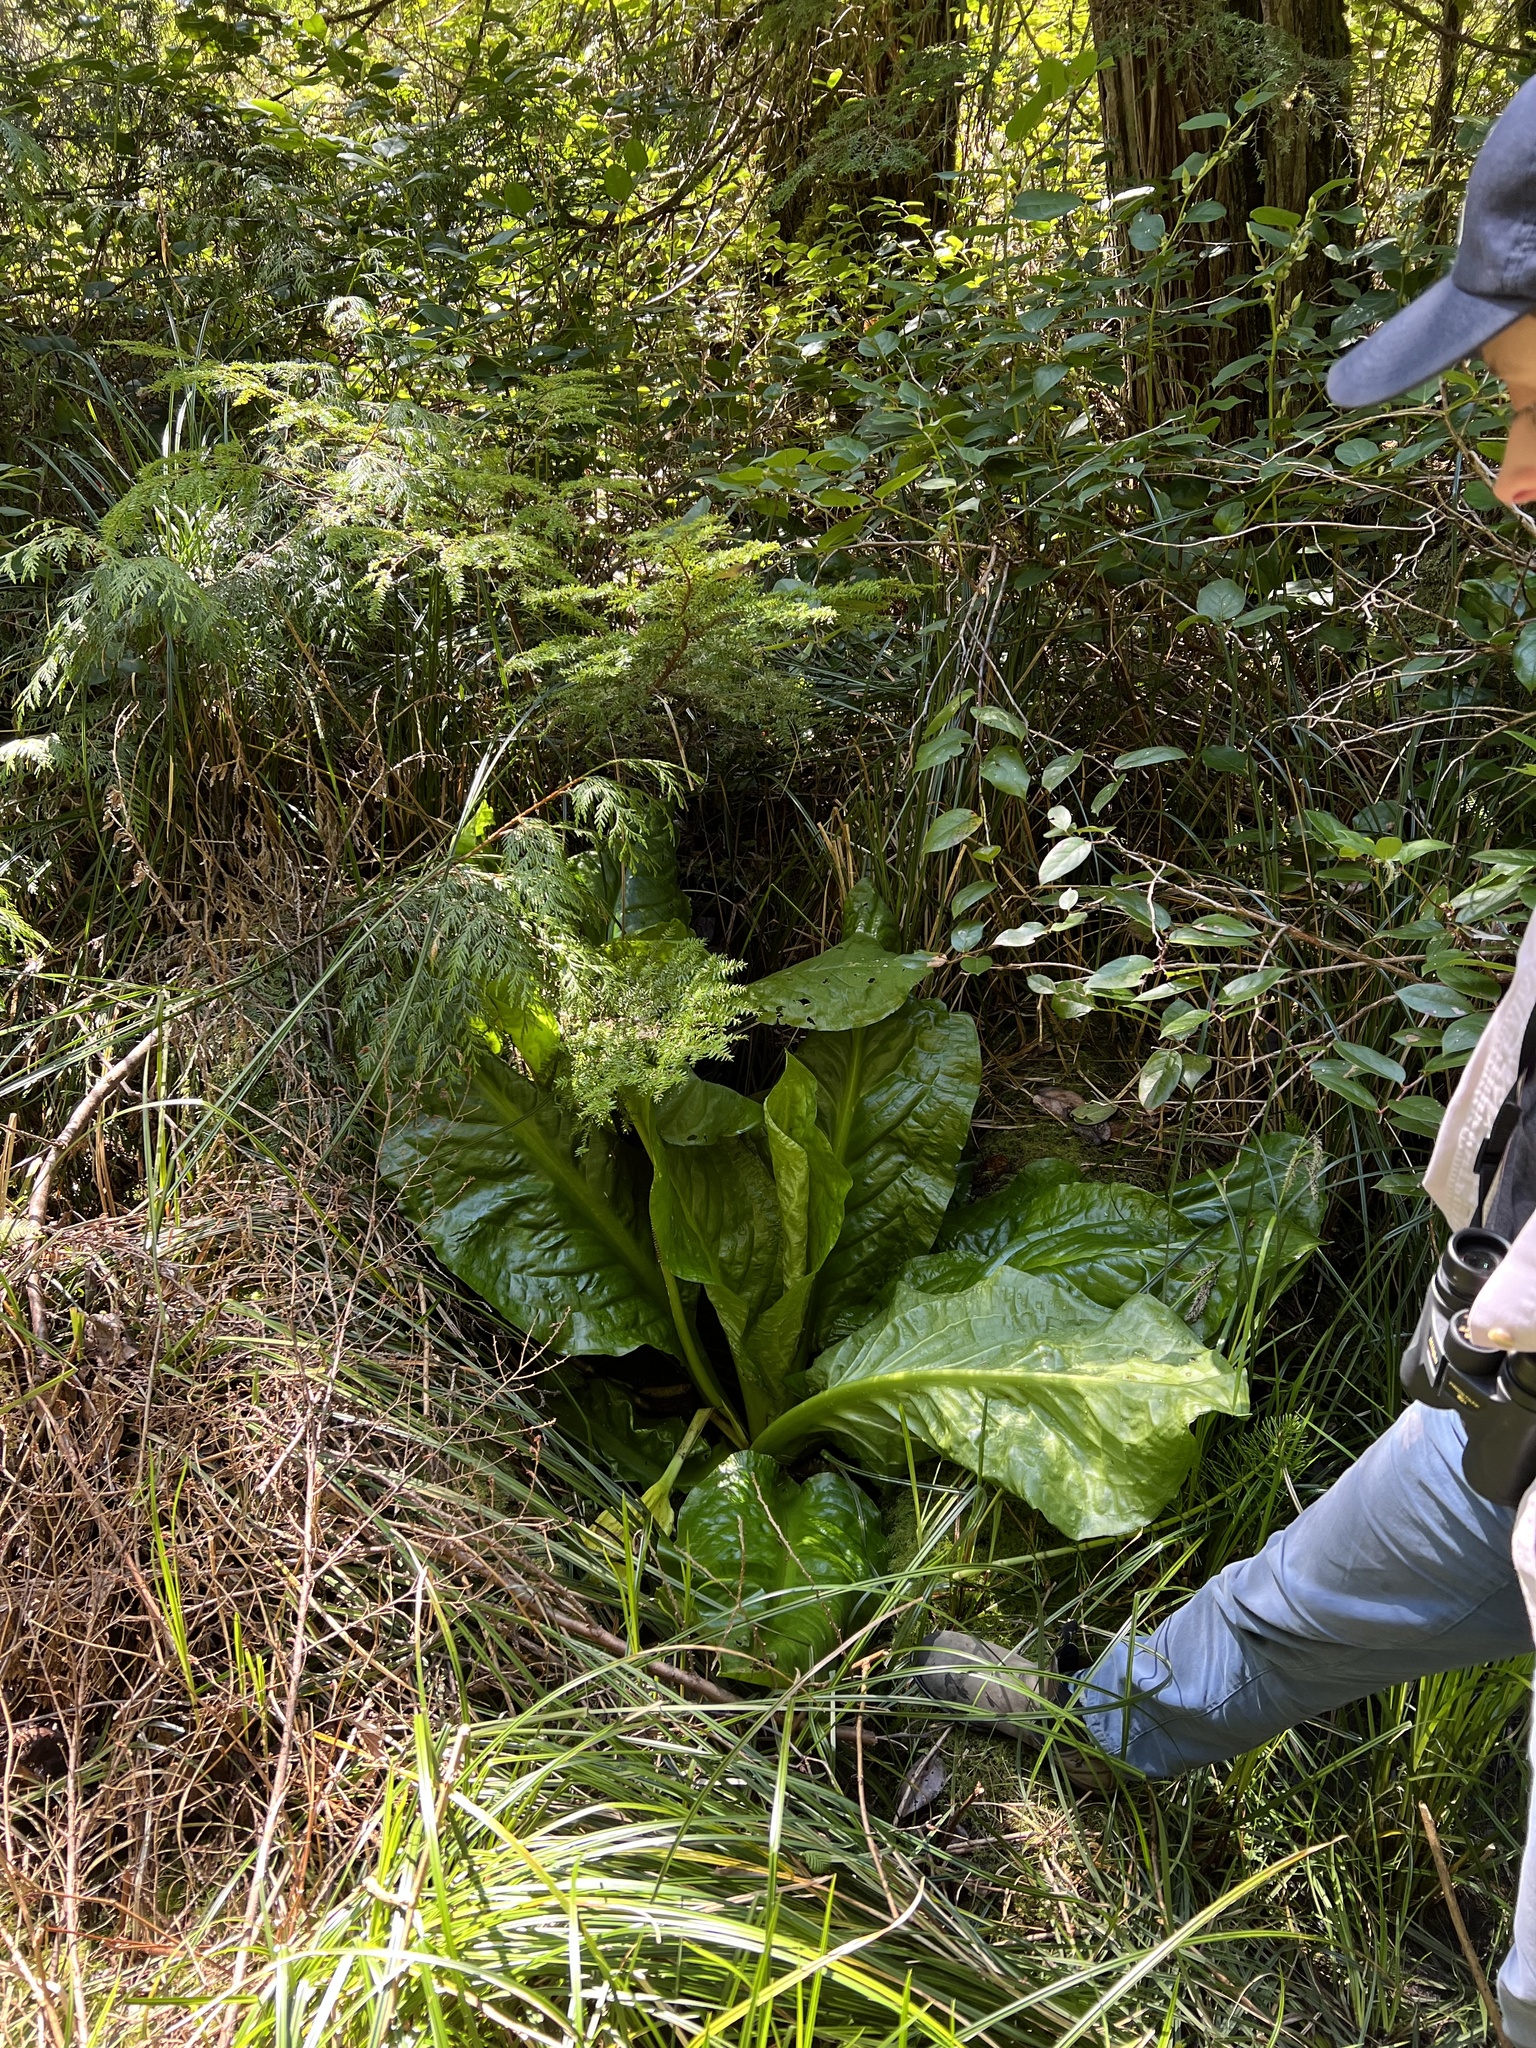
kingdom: Plantae
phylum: Tracheophyta
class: Liliopsida
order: Alismatales
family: Araceae
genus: Lysichiton
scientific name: Lysichiton americanus
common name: American skunk cabbage
